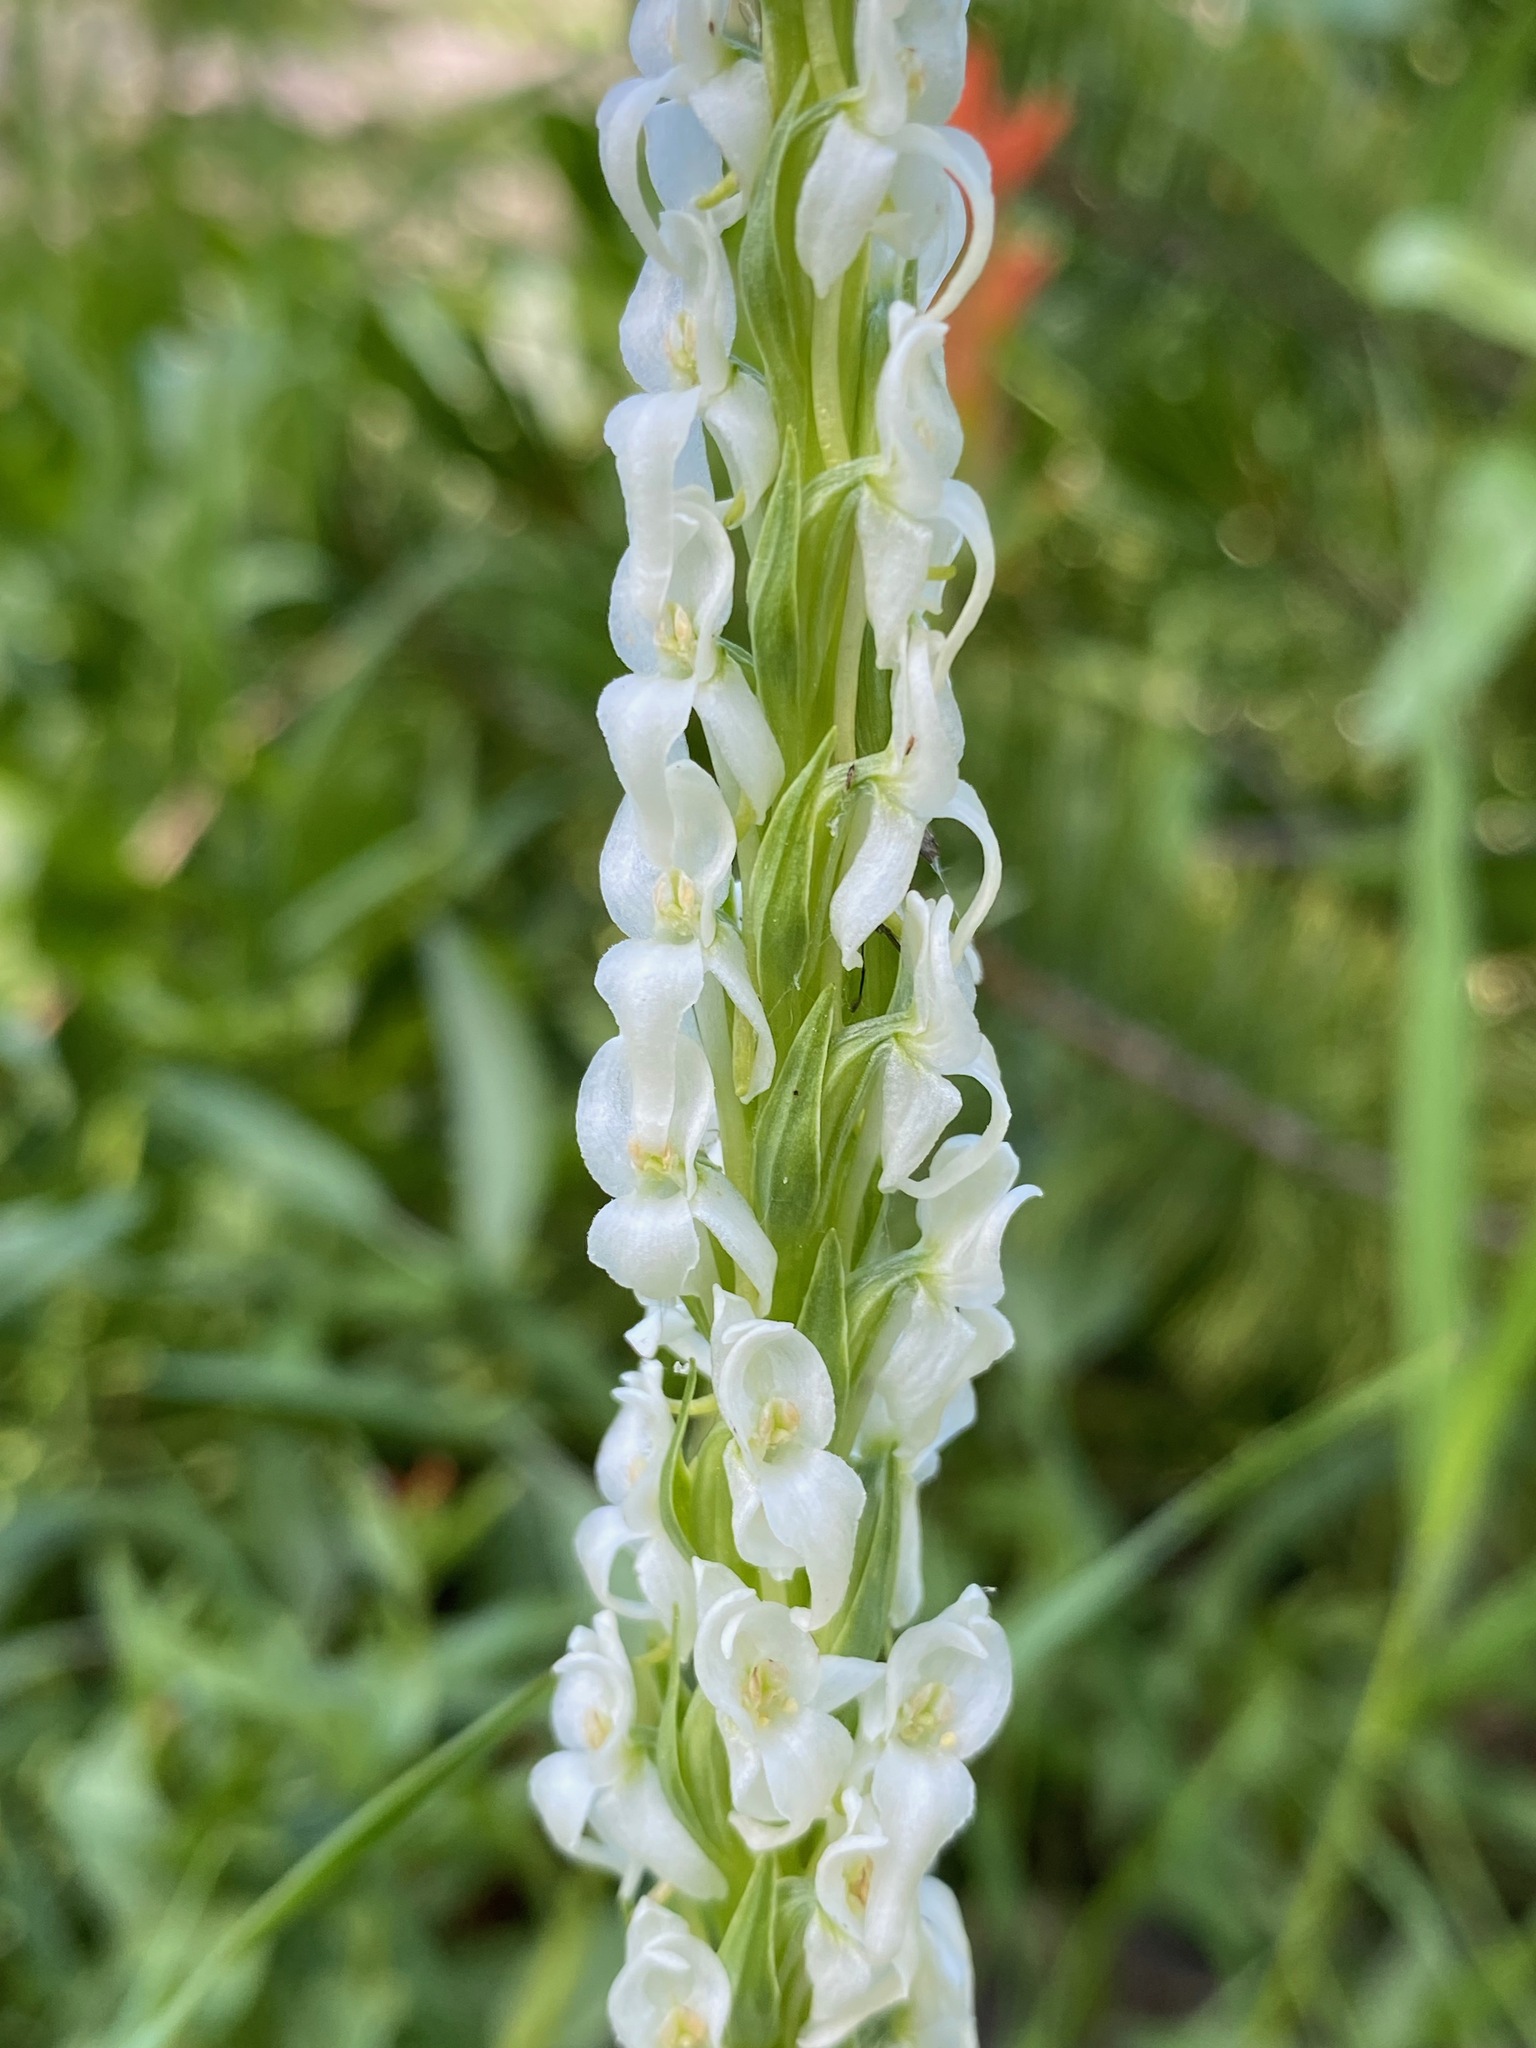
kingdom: Plantae
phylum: Tracheophyta
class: Liliopsida
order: Asparagales
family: Orchidaceae
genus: Platanthera
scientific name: Platanthera dilatata
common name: Bog candles
